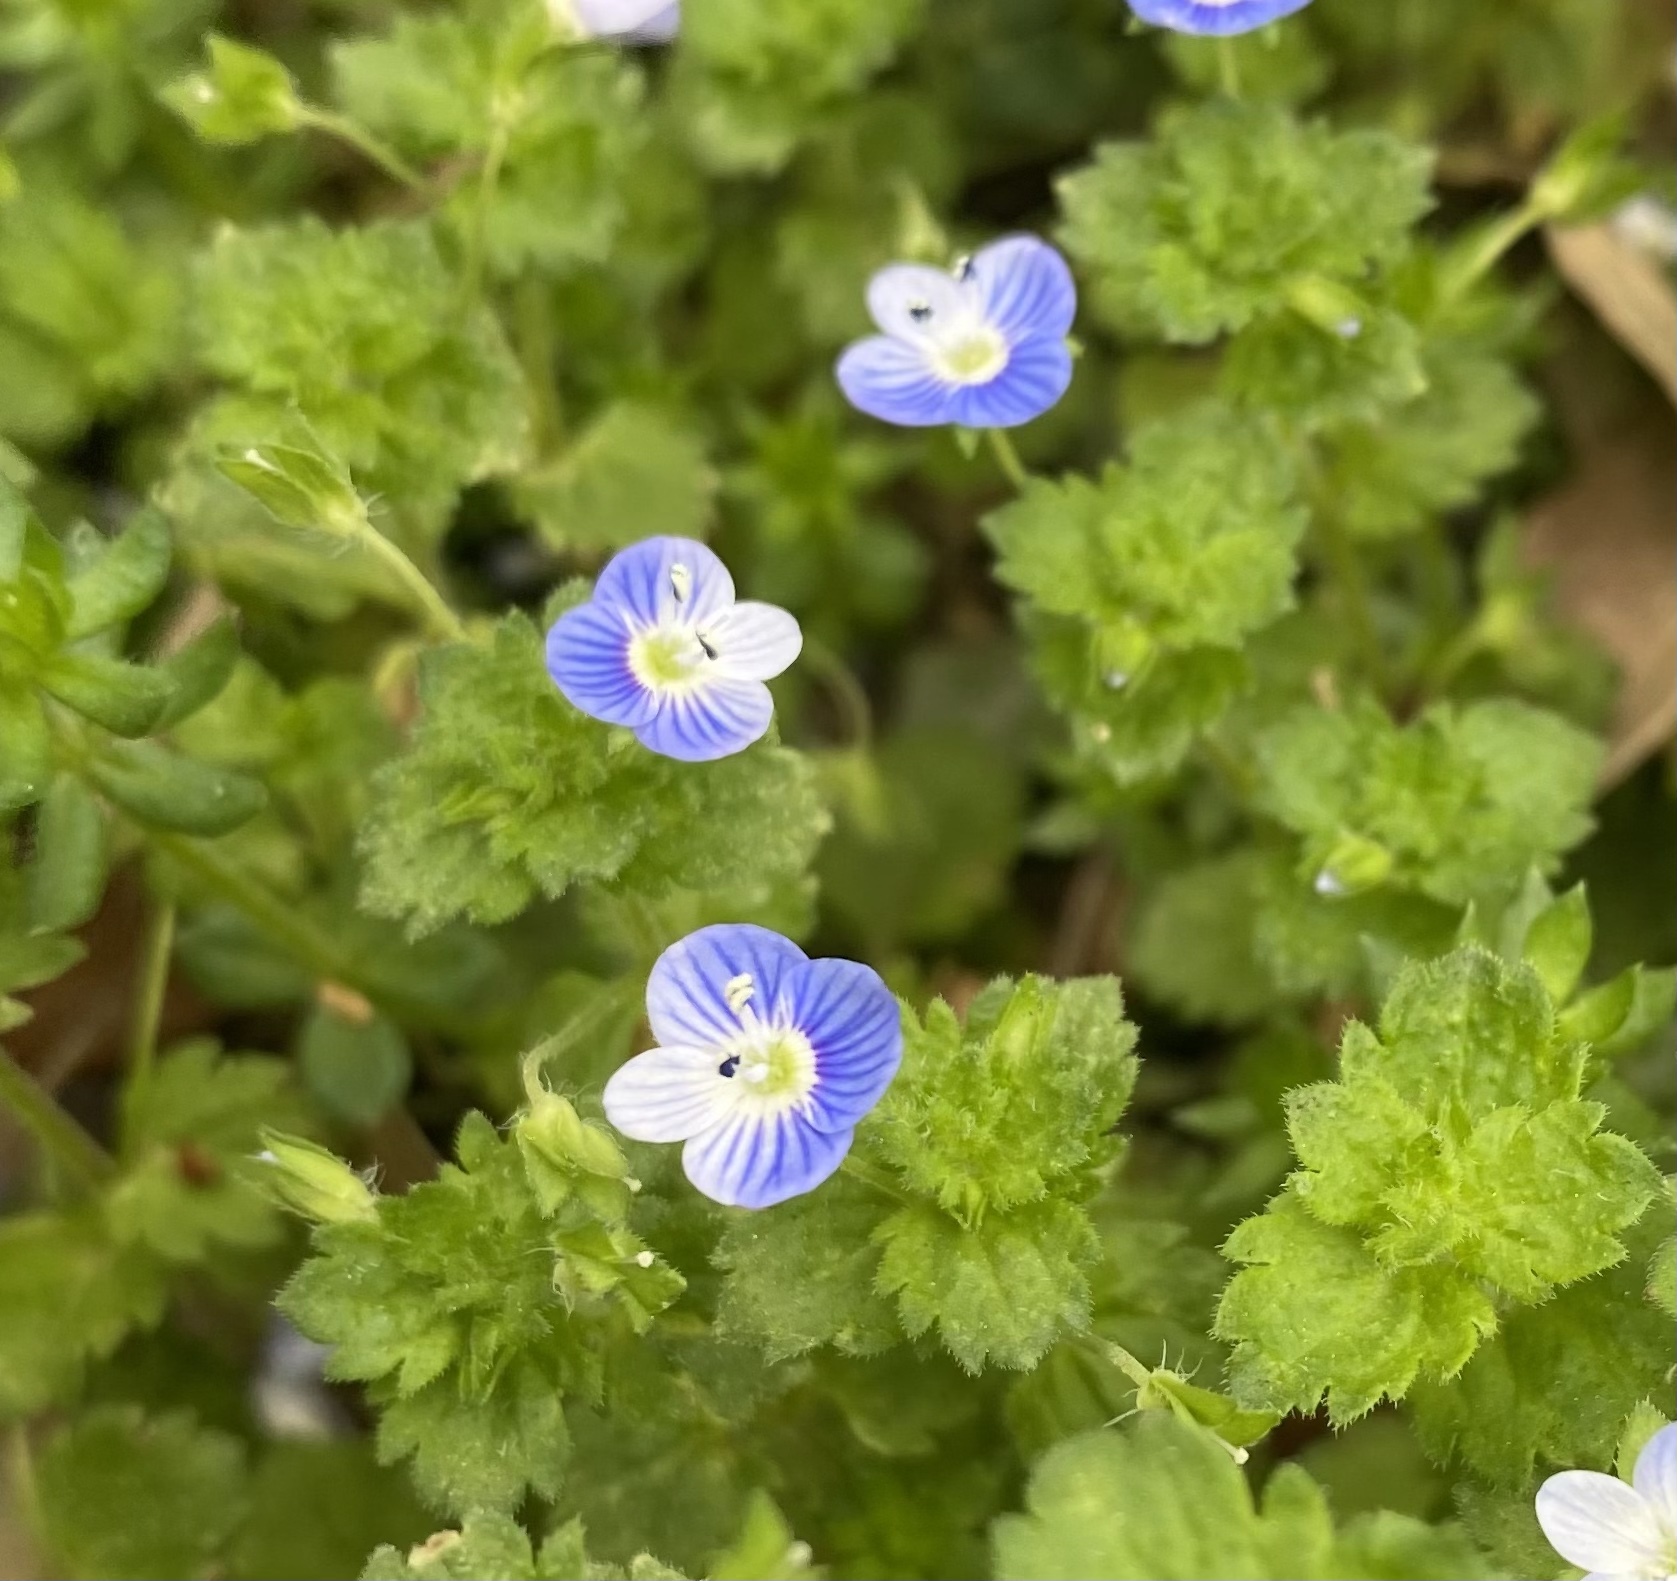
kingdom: Plantae
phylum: Tracheophyta
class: Magnoliopsida
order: Lamiales
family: Plantaginaceae
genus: Veronica
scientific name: Veronica persica
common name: Common field-speedwell
